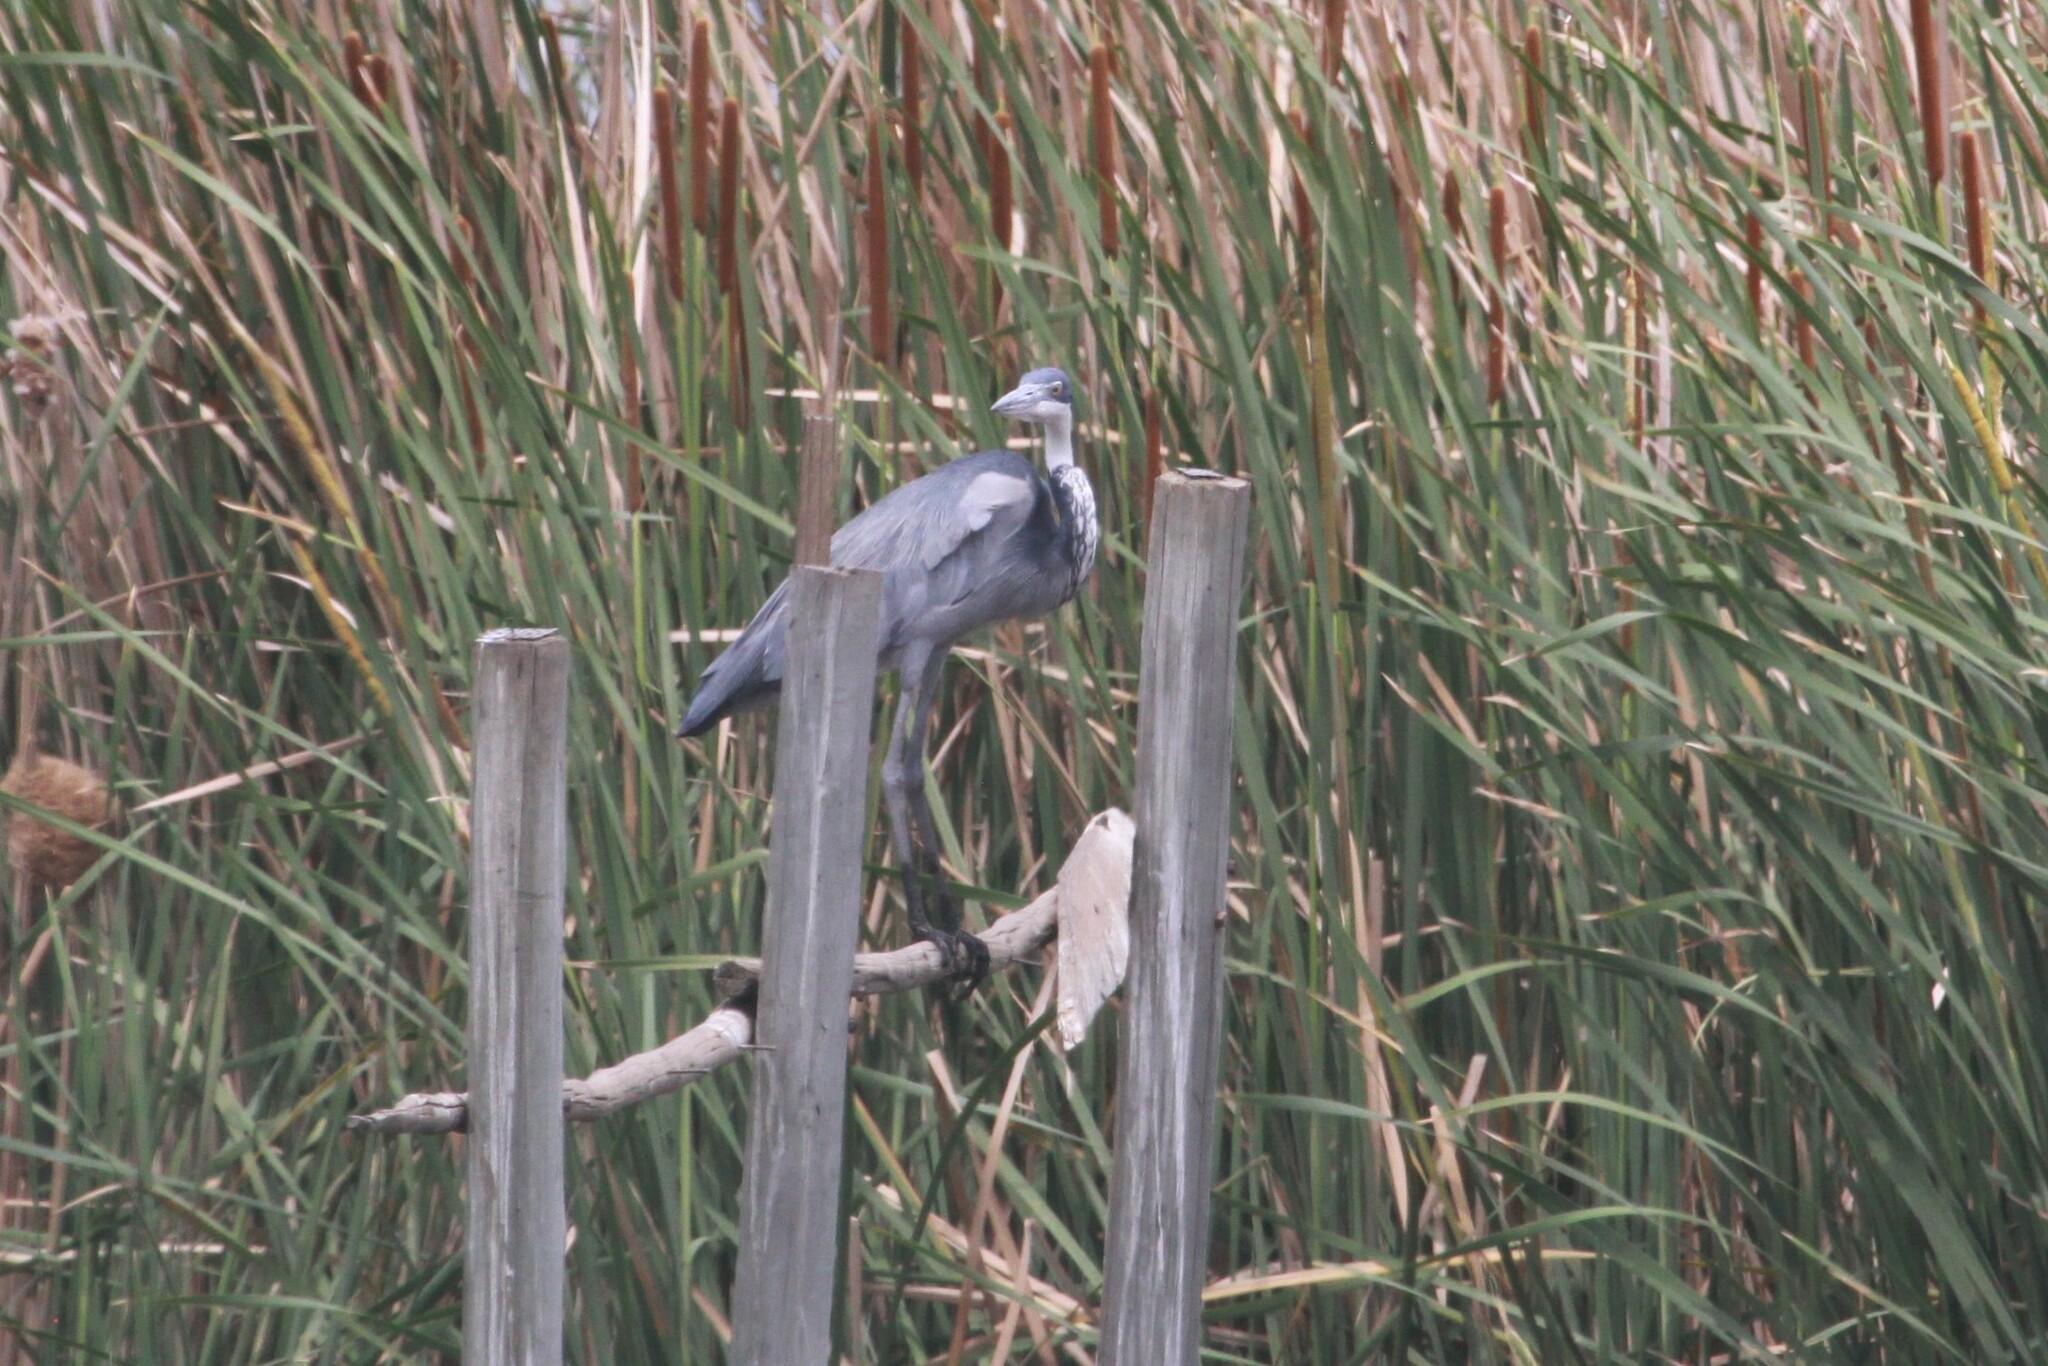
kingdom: Animalia
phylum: Chordata
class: Aves
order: Pelecaniformes
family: Ardeidae
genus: Ardea
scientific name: Ardea melanocephala
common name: Black-headed heron
